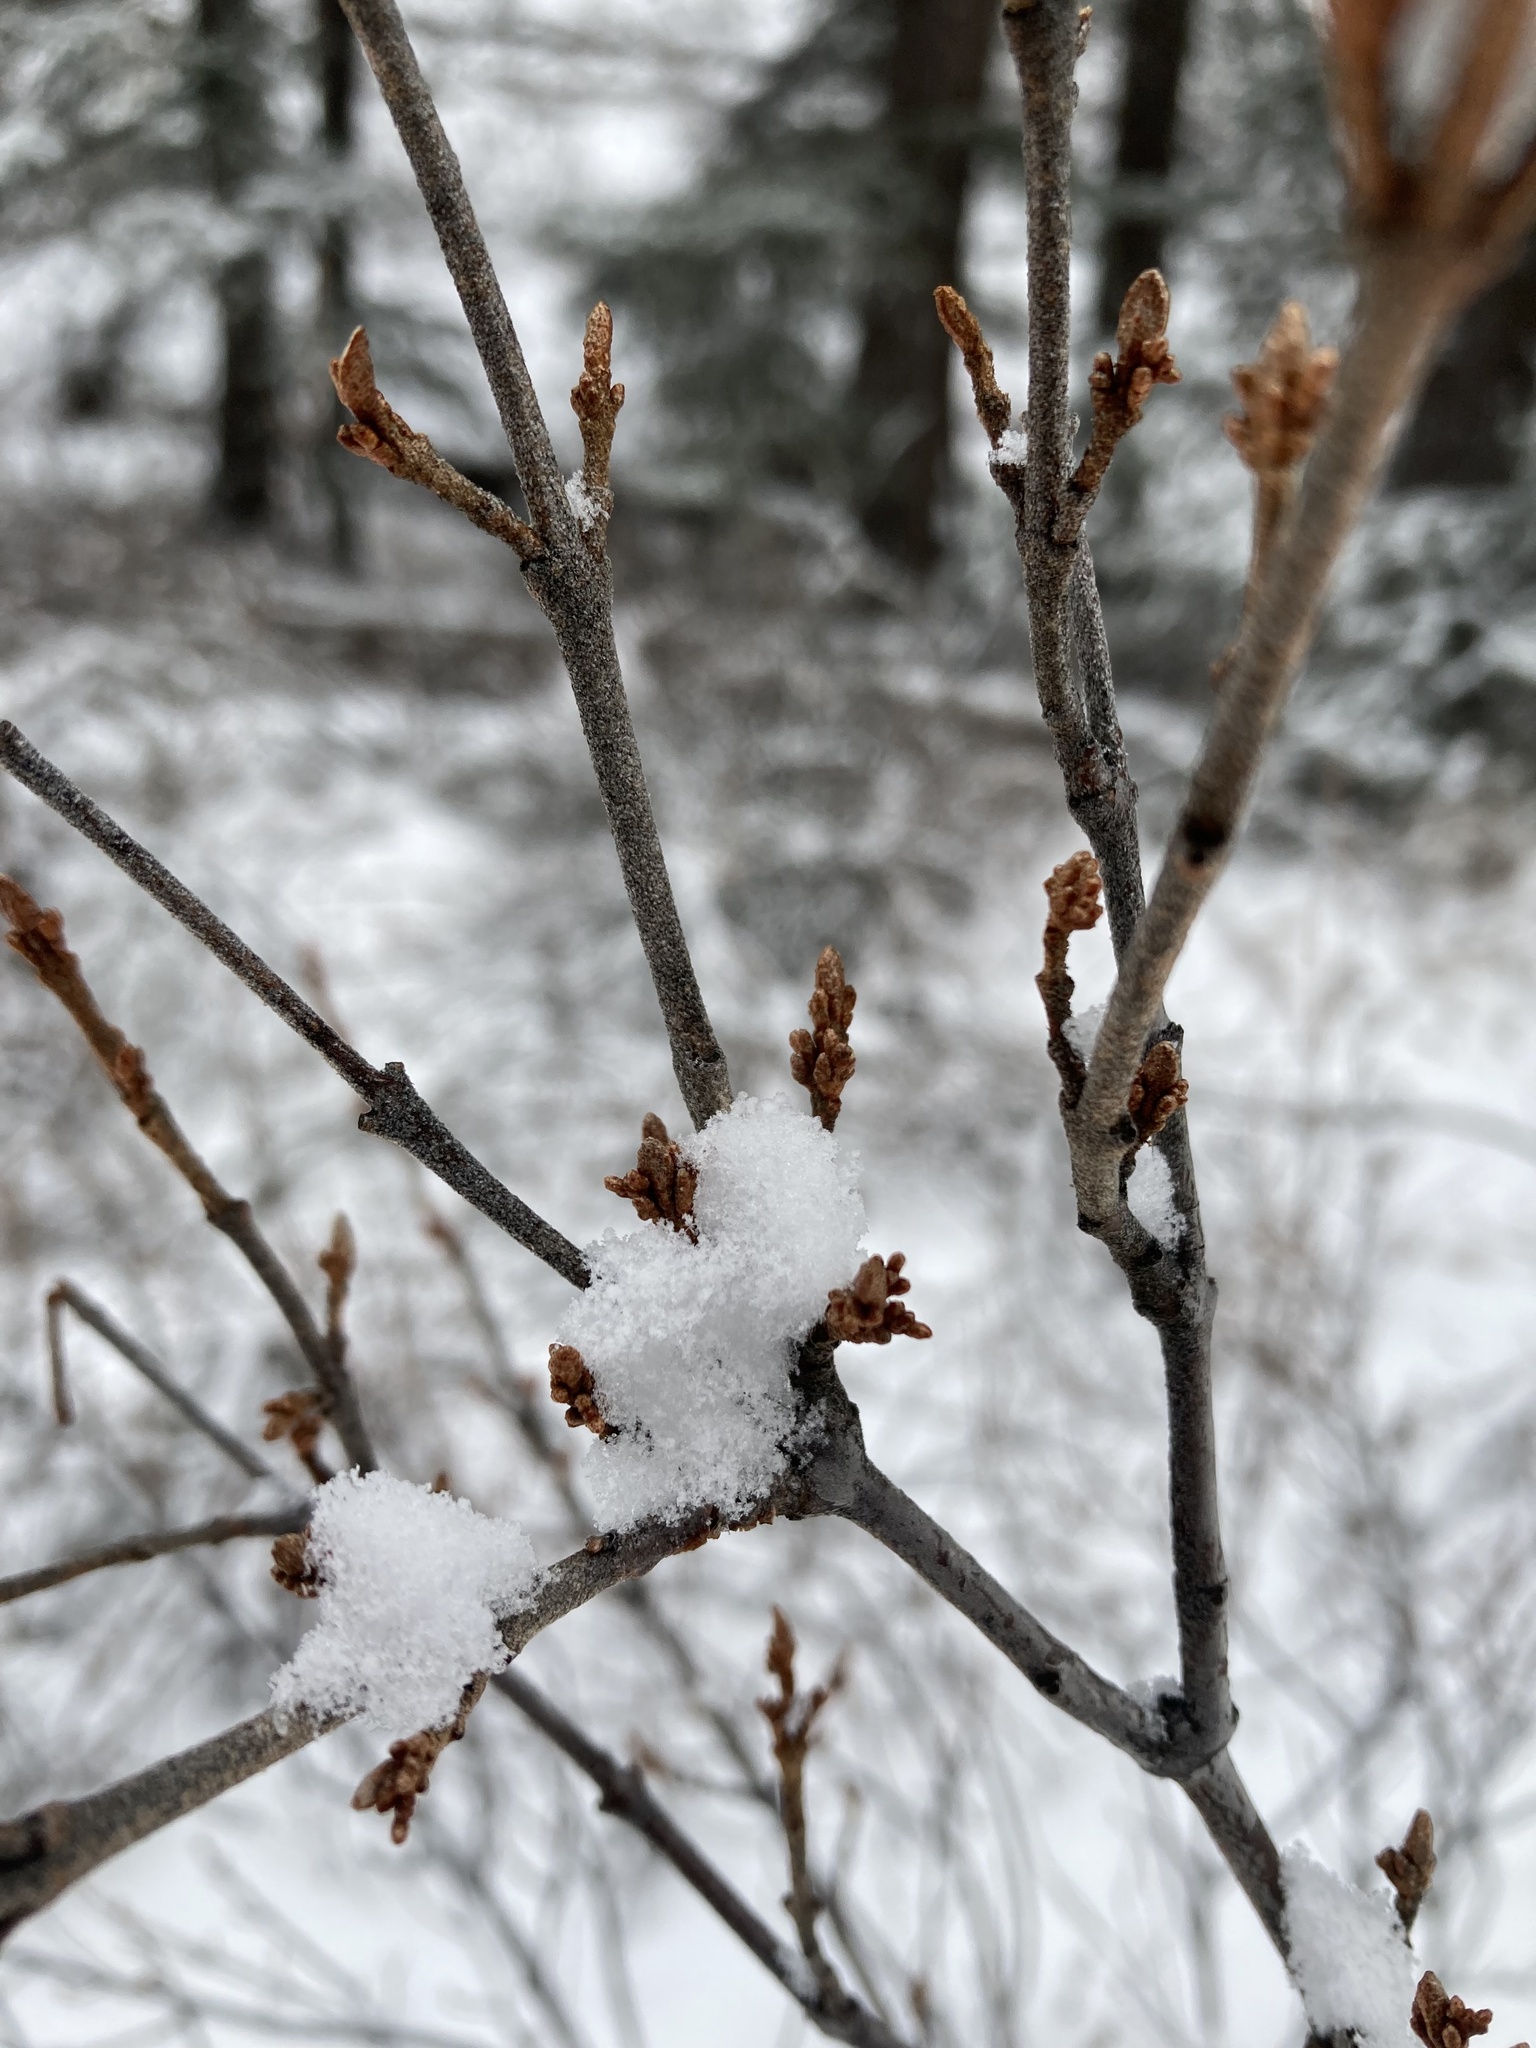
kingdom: Plantae
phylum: Tracheophyta
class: Magnoliopsida
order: Rosales
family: Elaeagnaceae
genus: Shepherdia
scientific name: Shepherdia canadensis
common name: Soapberry
